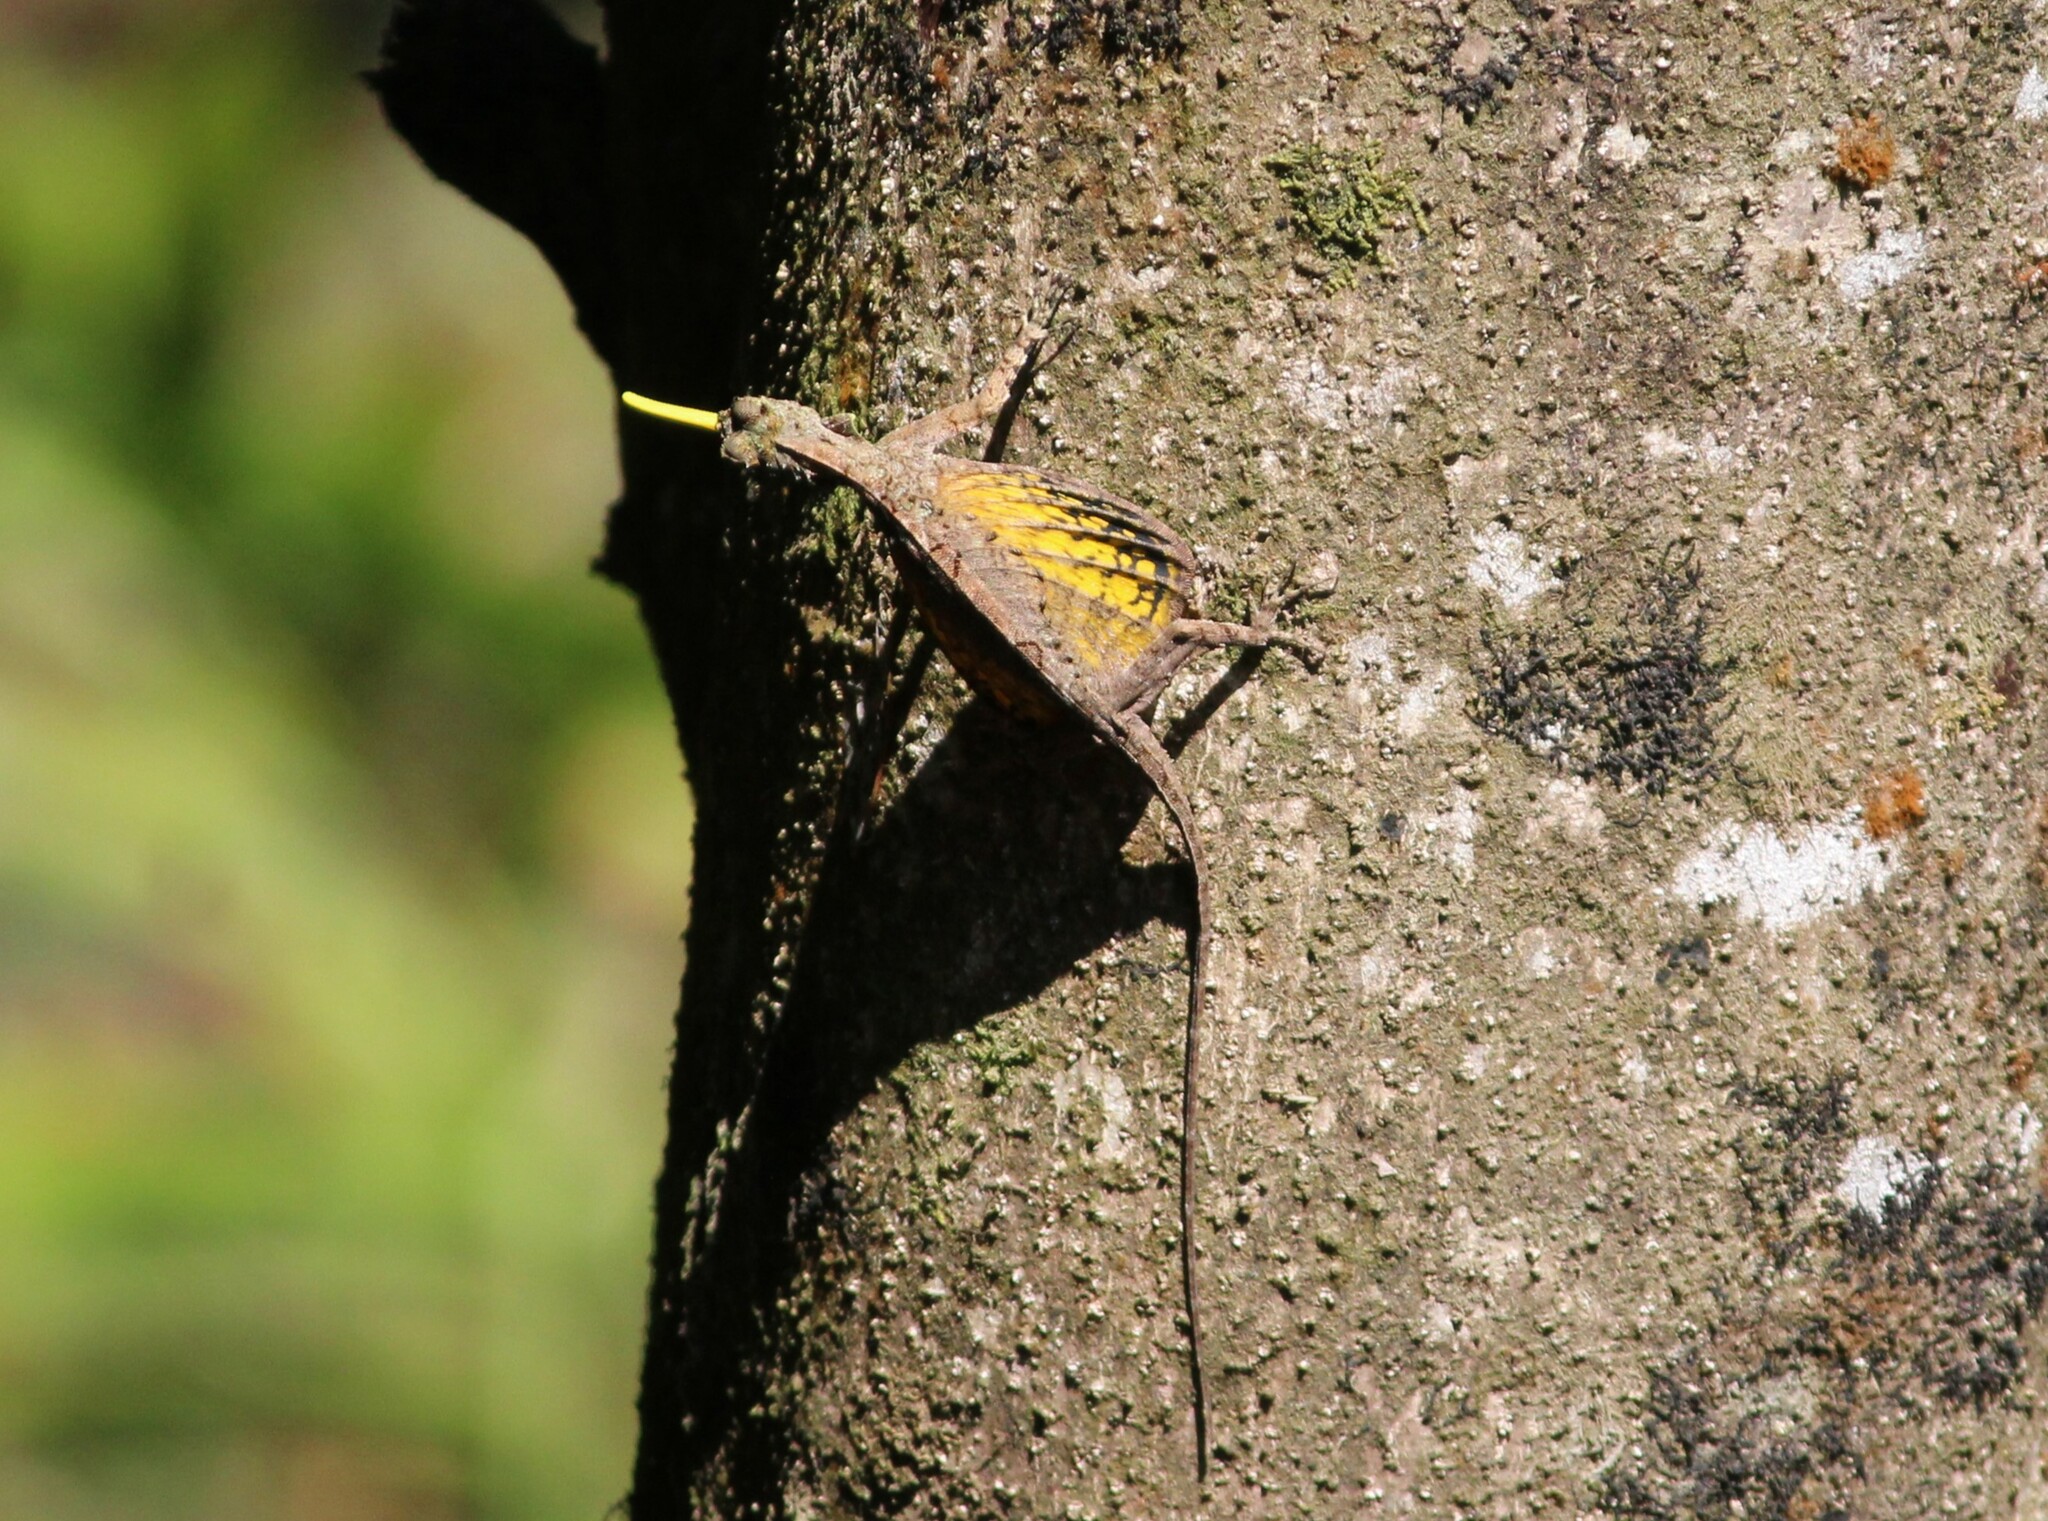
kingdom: Animalia
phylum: Chordata
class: Squamata
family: Agamidae
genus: Draco
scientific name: Draco dussumieri
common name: Southern flying lizard
